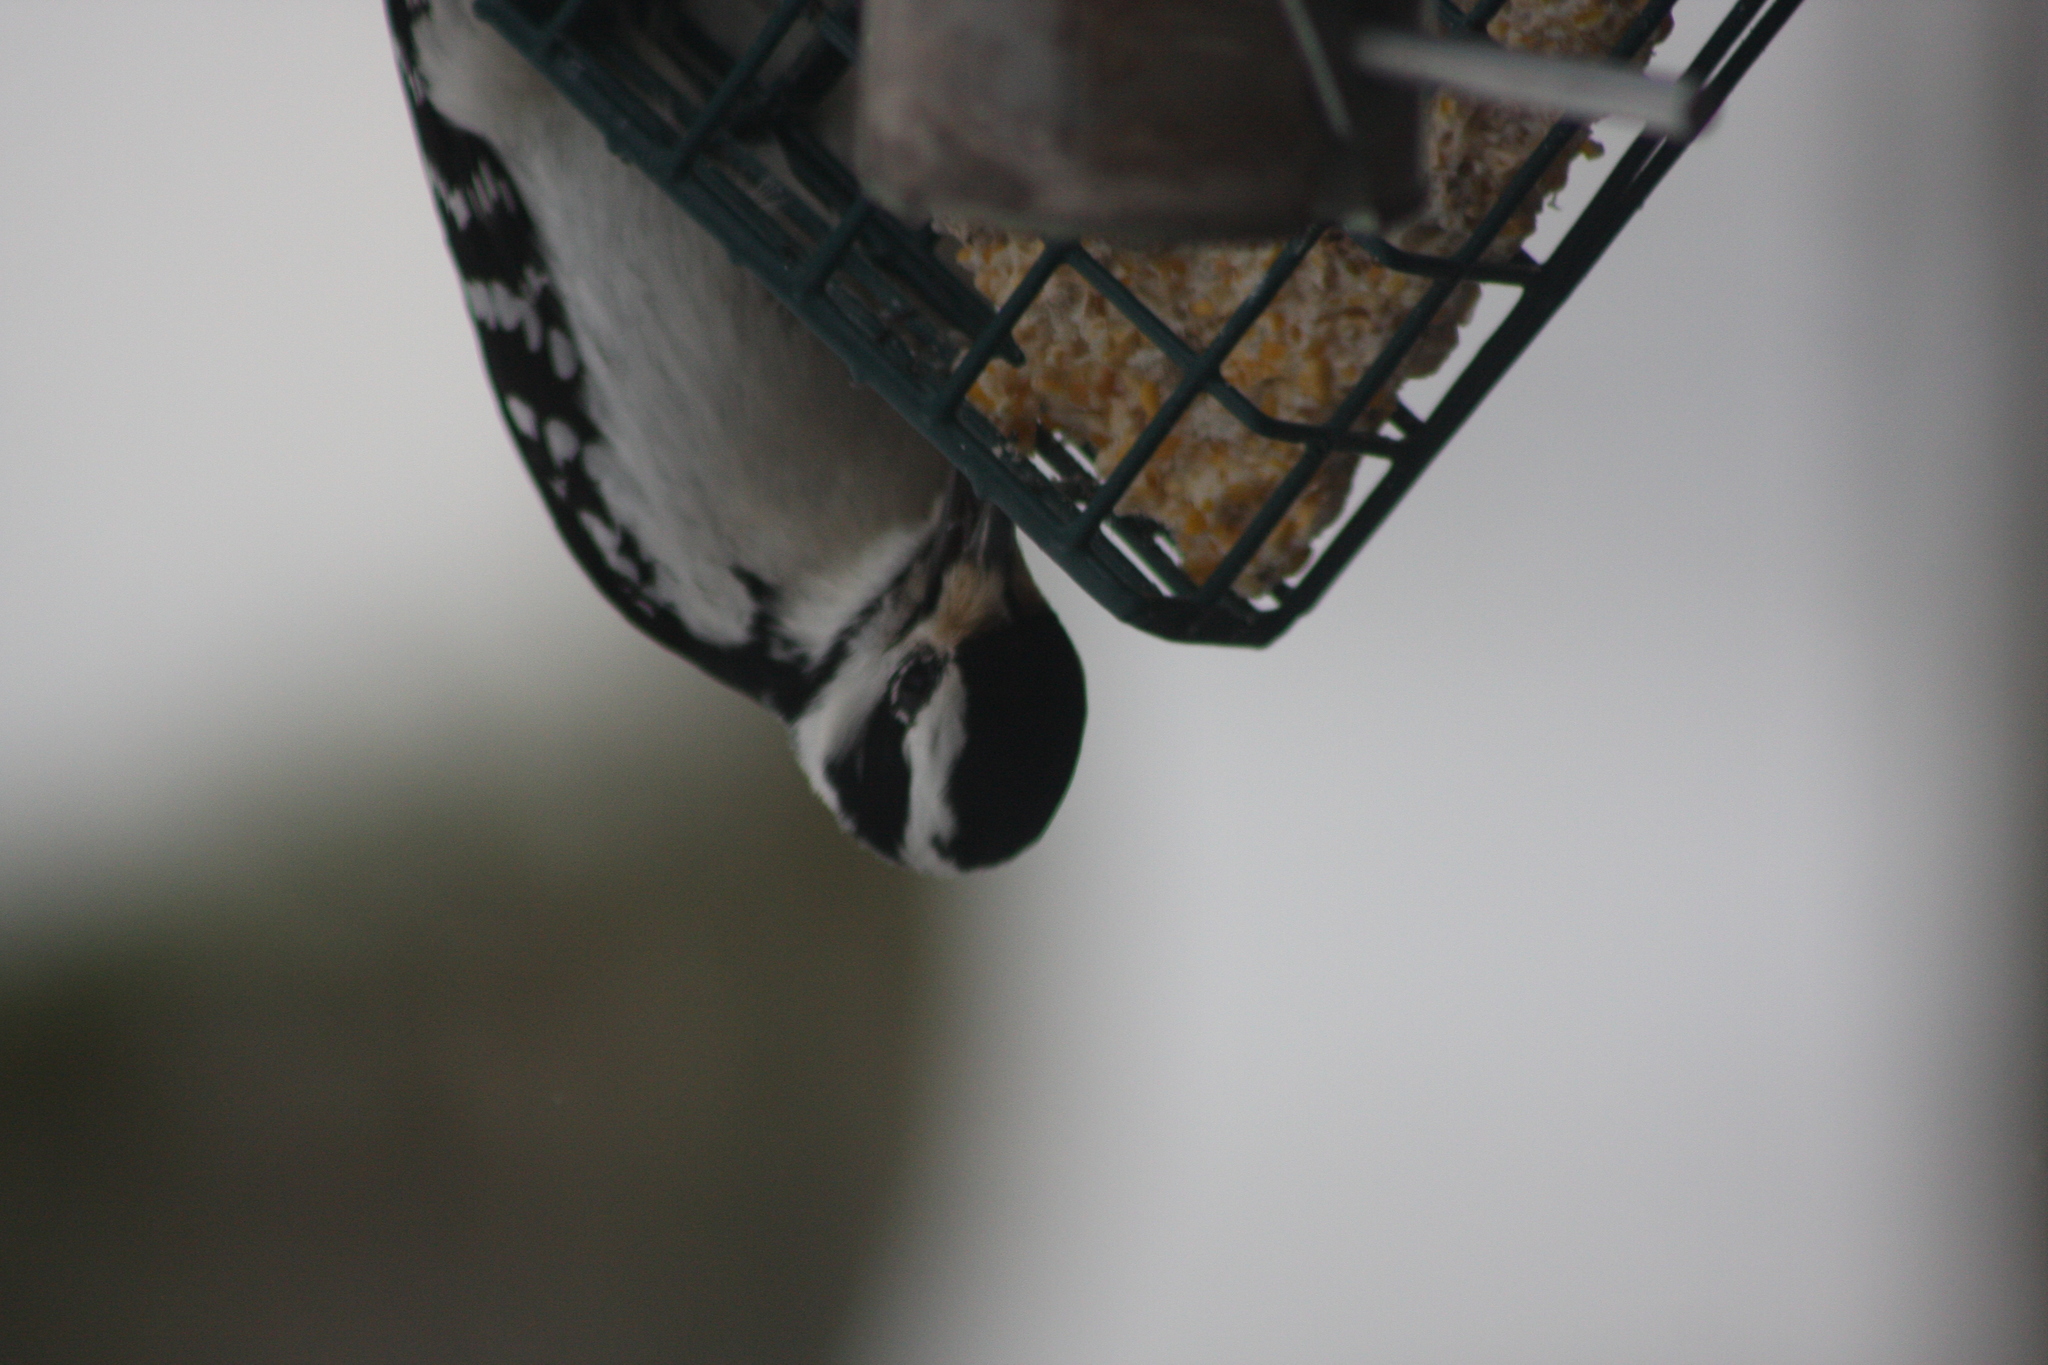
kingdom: Animalia
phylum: Chordata
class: Aves
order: Piciformes
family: Picidae
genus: Dryobates
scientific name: Dryobates pubescens
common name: Downy woodpecker
